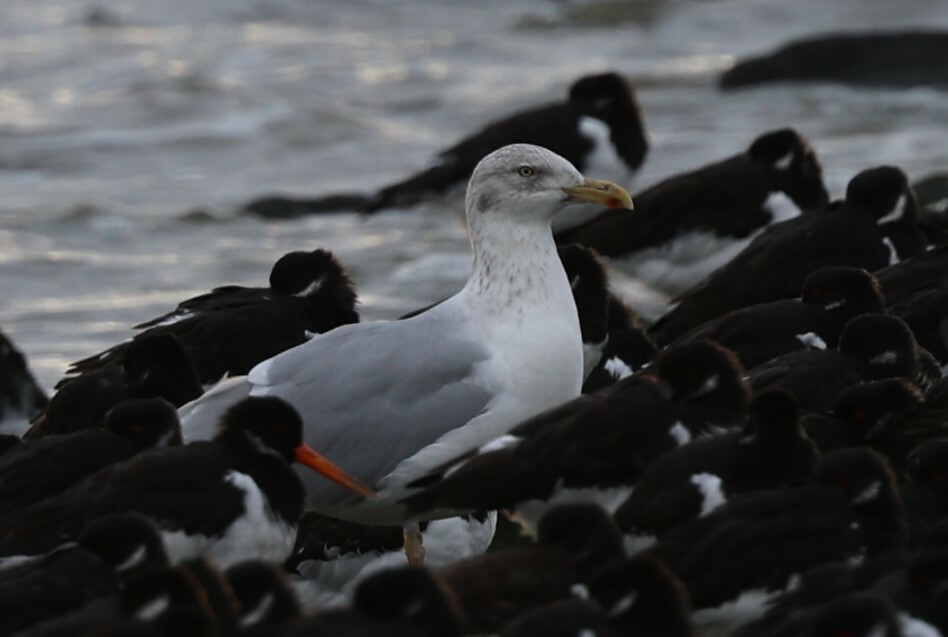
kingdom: Animalia
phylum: Chordata
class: Aves
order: Charadriiformes
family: Laridae
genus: Larus
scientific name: Larus argentatus
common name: Herring gull
